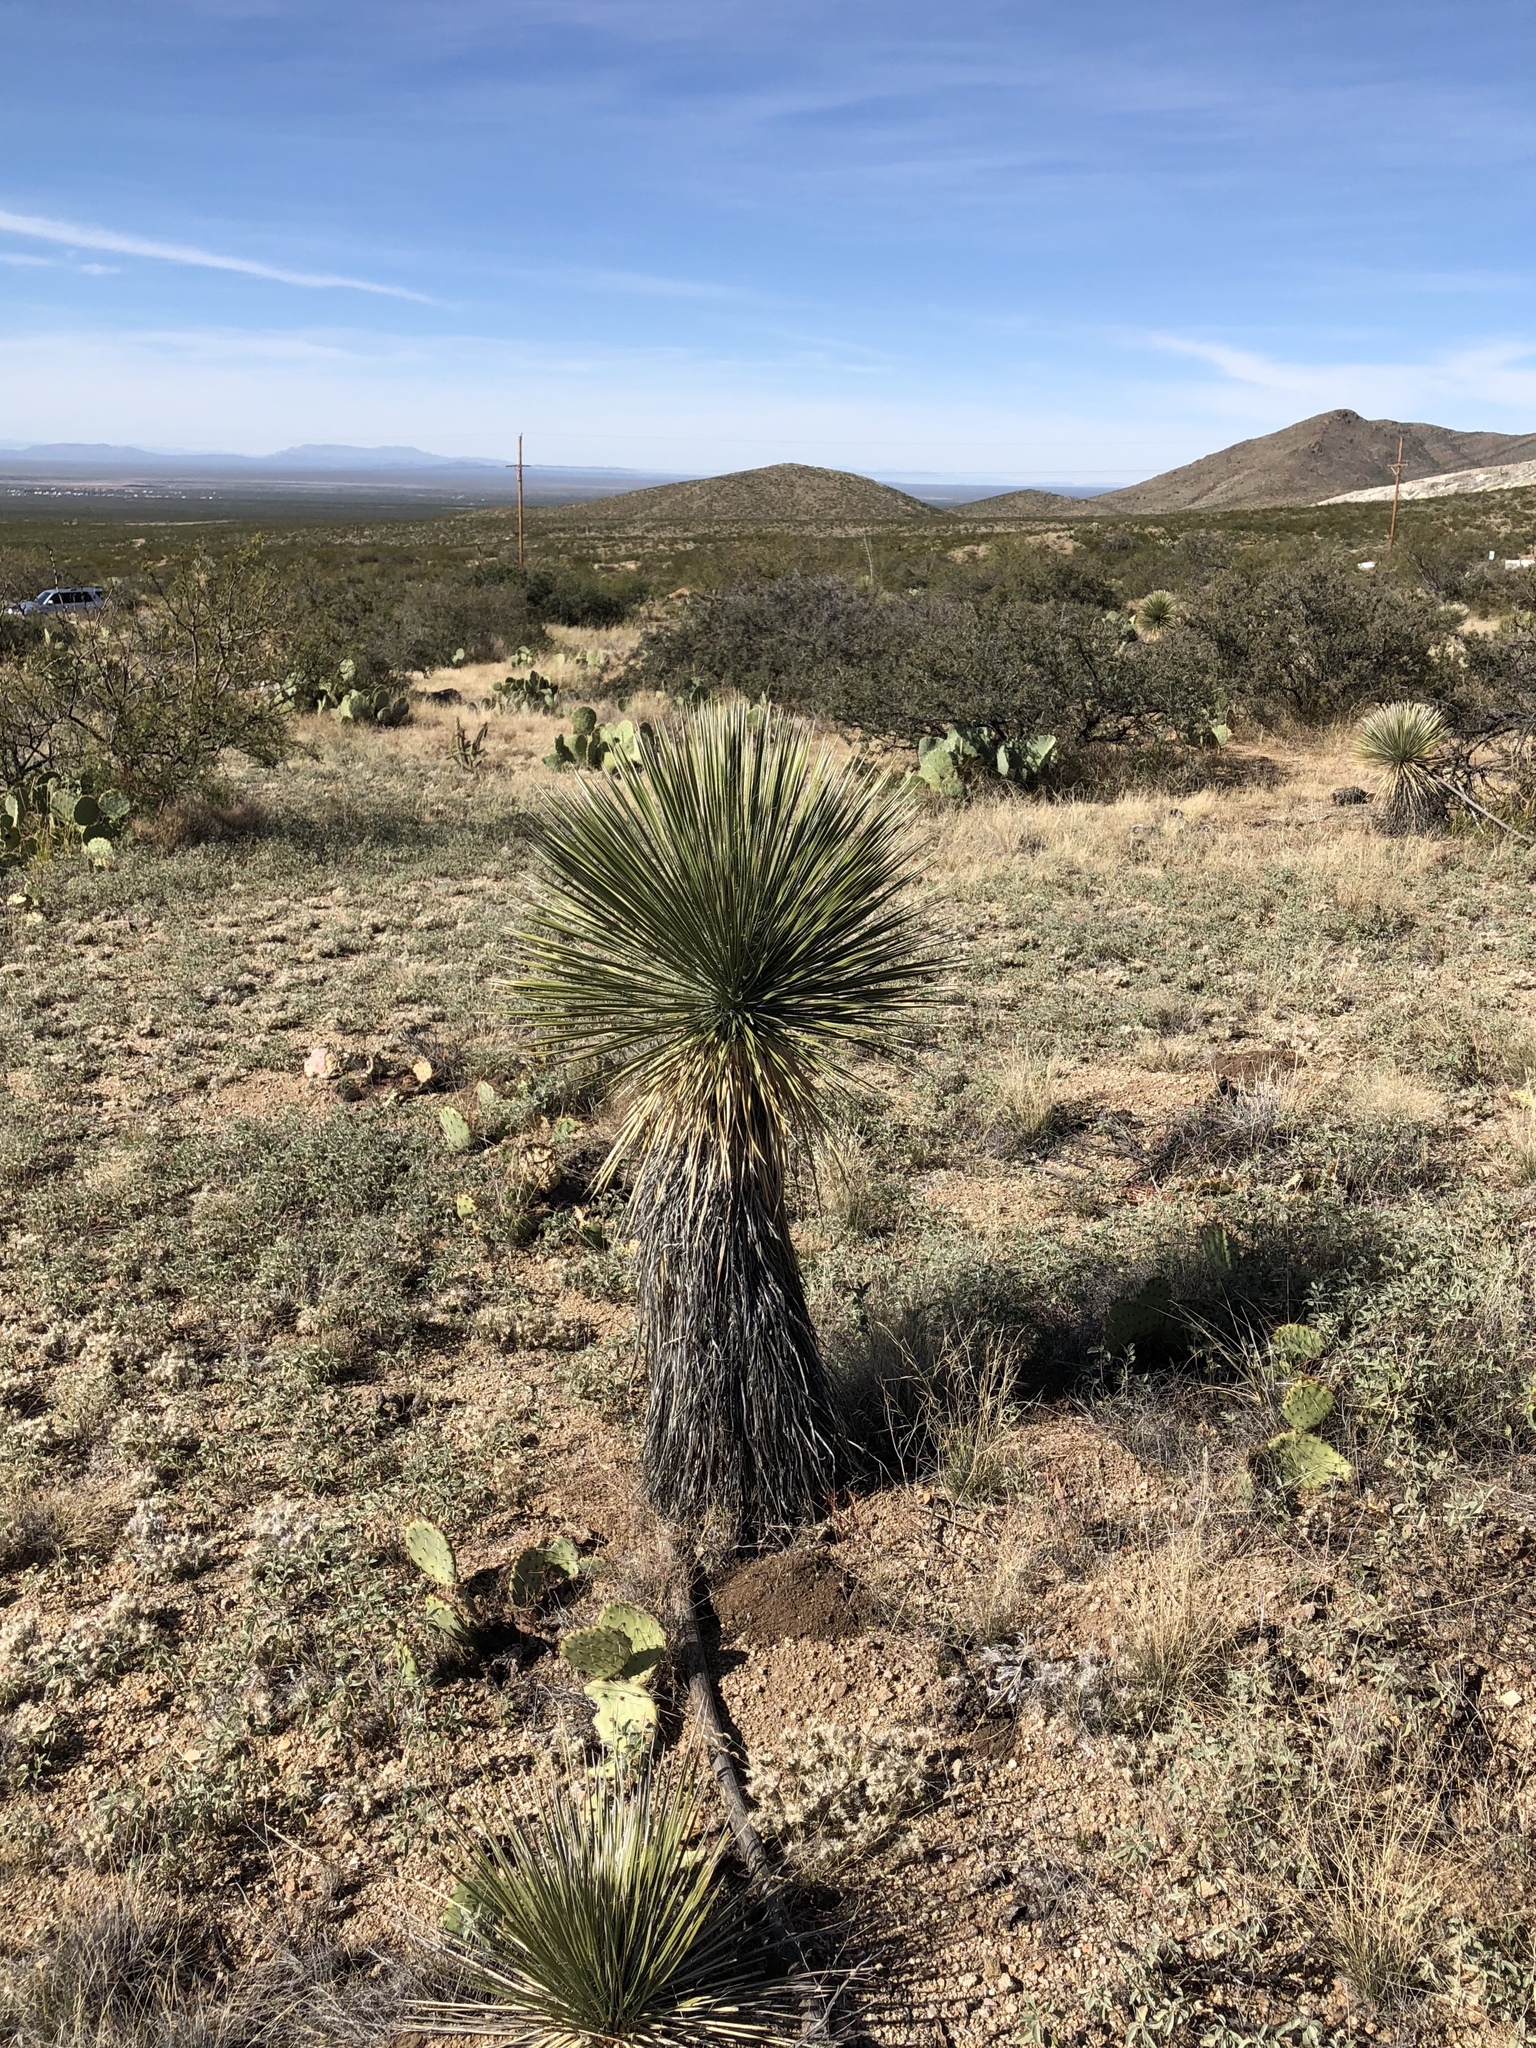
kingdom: Plantae
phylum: Tracheophyta
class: Liliopsida
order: Asparagales
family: Asparagaceae
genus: Yucca
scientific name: Yucca elata
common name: Palmella
